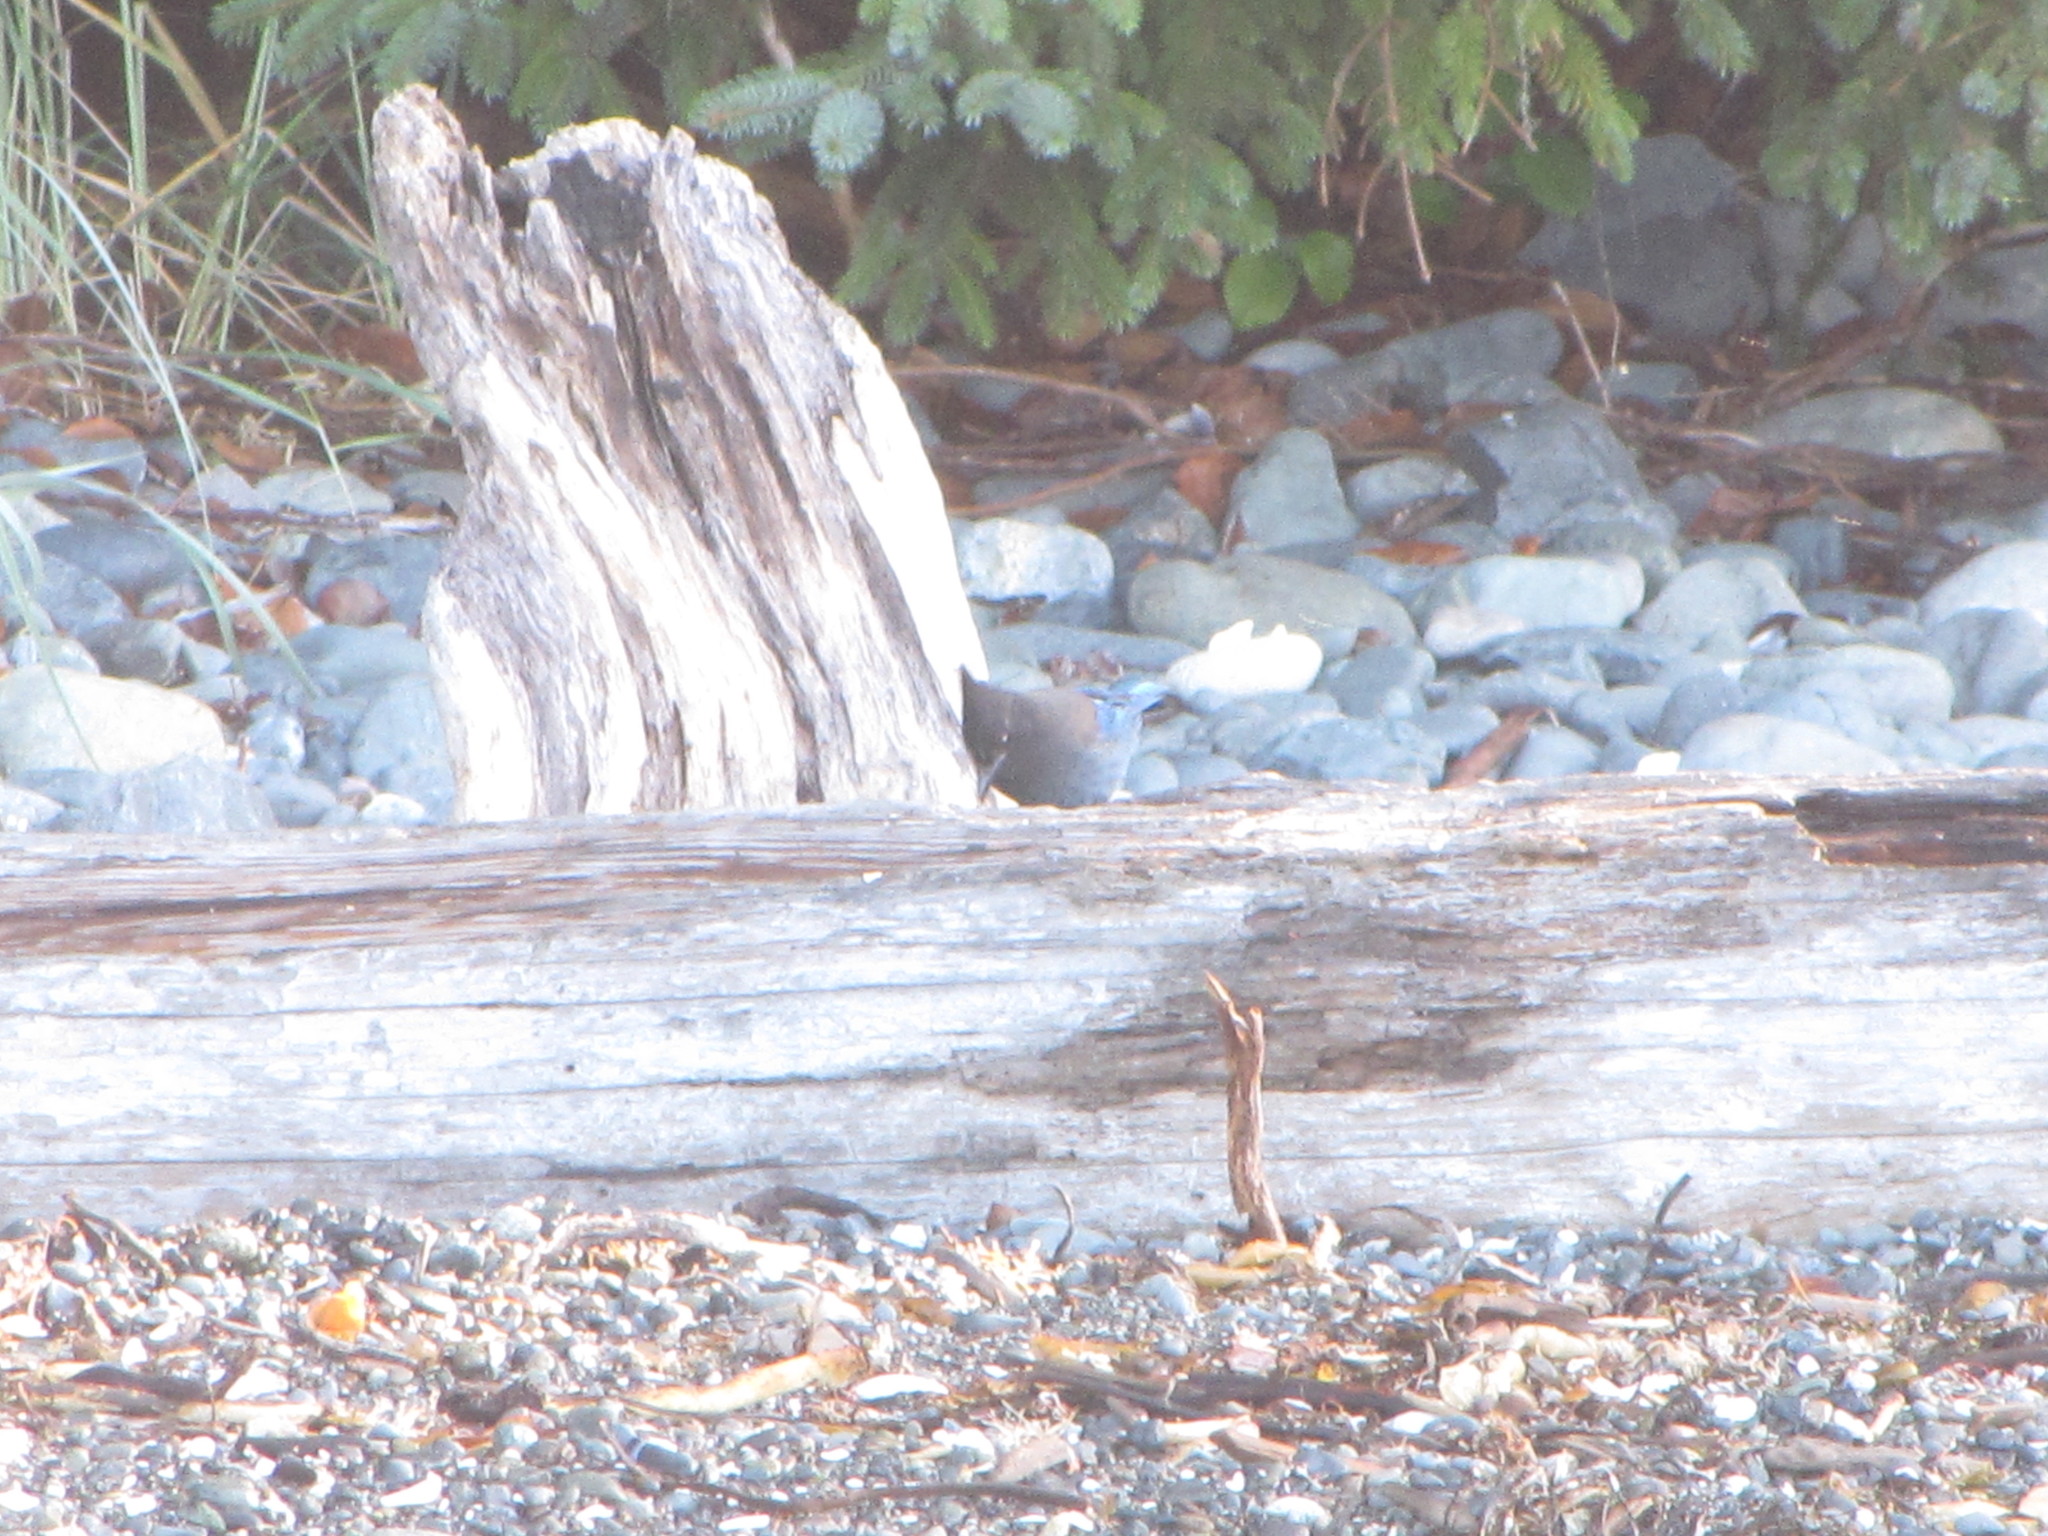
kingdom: Animalia
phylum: Chordata
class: Aves
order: Passeriformes
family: Corvidae
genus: Cyanocitta
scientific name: Cyanocitta stelleri
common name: Steller's jay
